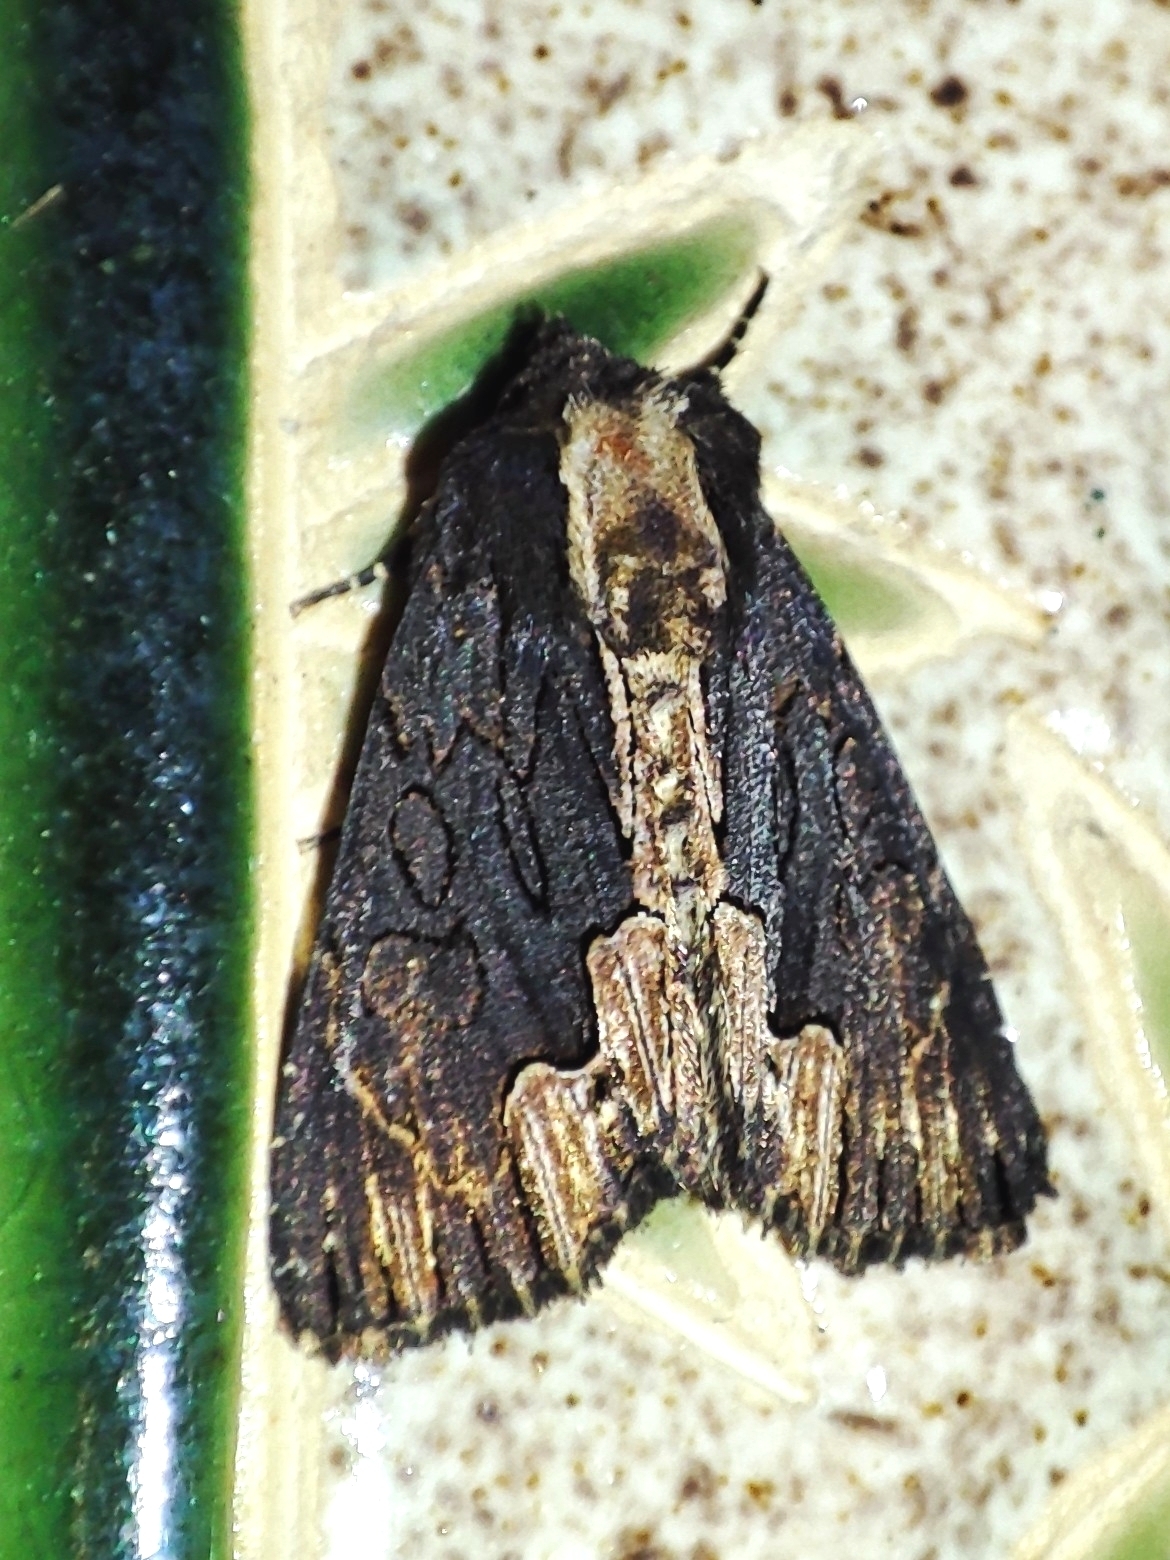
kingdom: Animalia
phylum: Arthropoda
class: Insecta
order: Lepidoptera
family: Noctuidae
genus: Dypterygia
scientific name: Dypterygia scabriuscula
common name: Bird's wing
